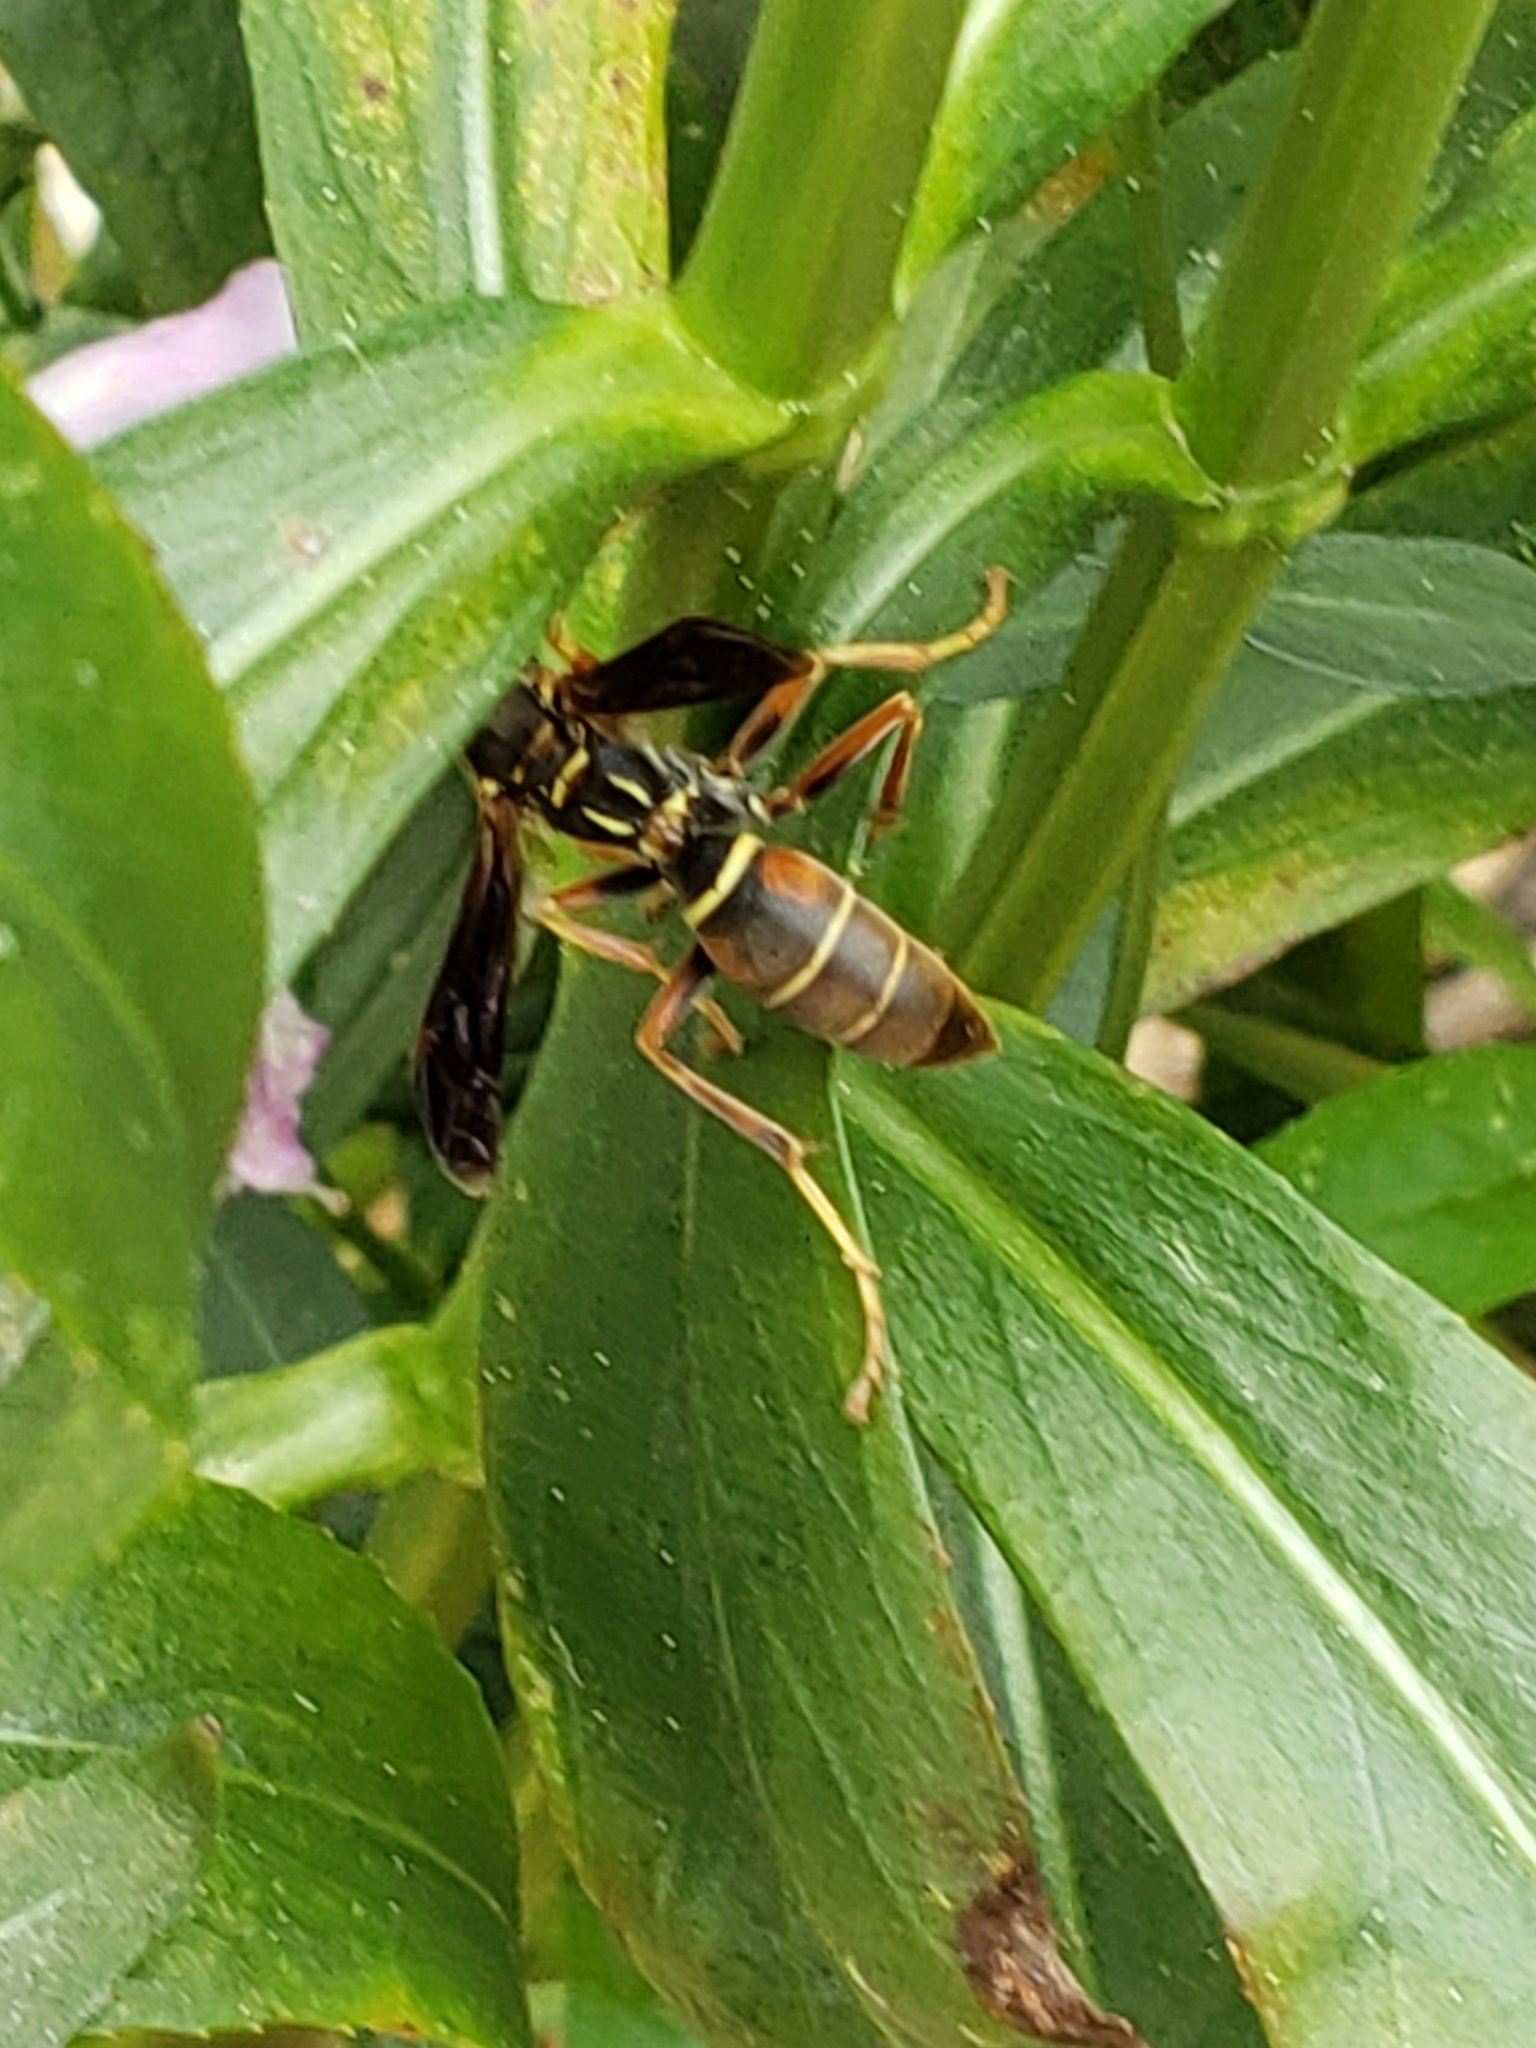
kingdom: Animalia
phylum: Arthropoda
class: Insecta
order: Hymenoptera
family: Eumenidae
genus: Polistes
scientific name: Polistes fuscatus
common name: Dark paper wasp
